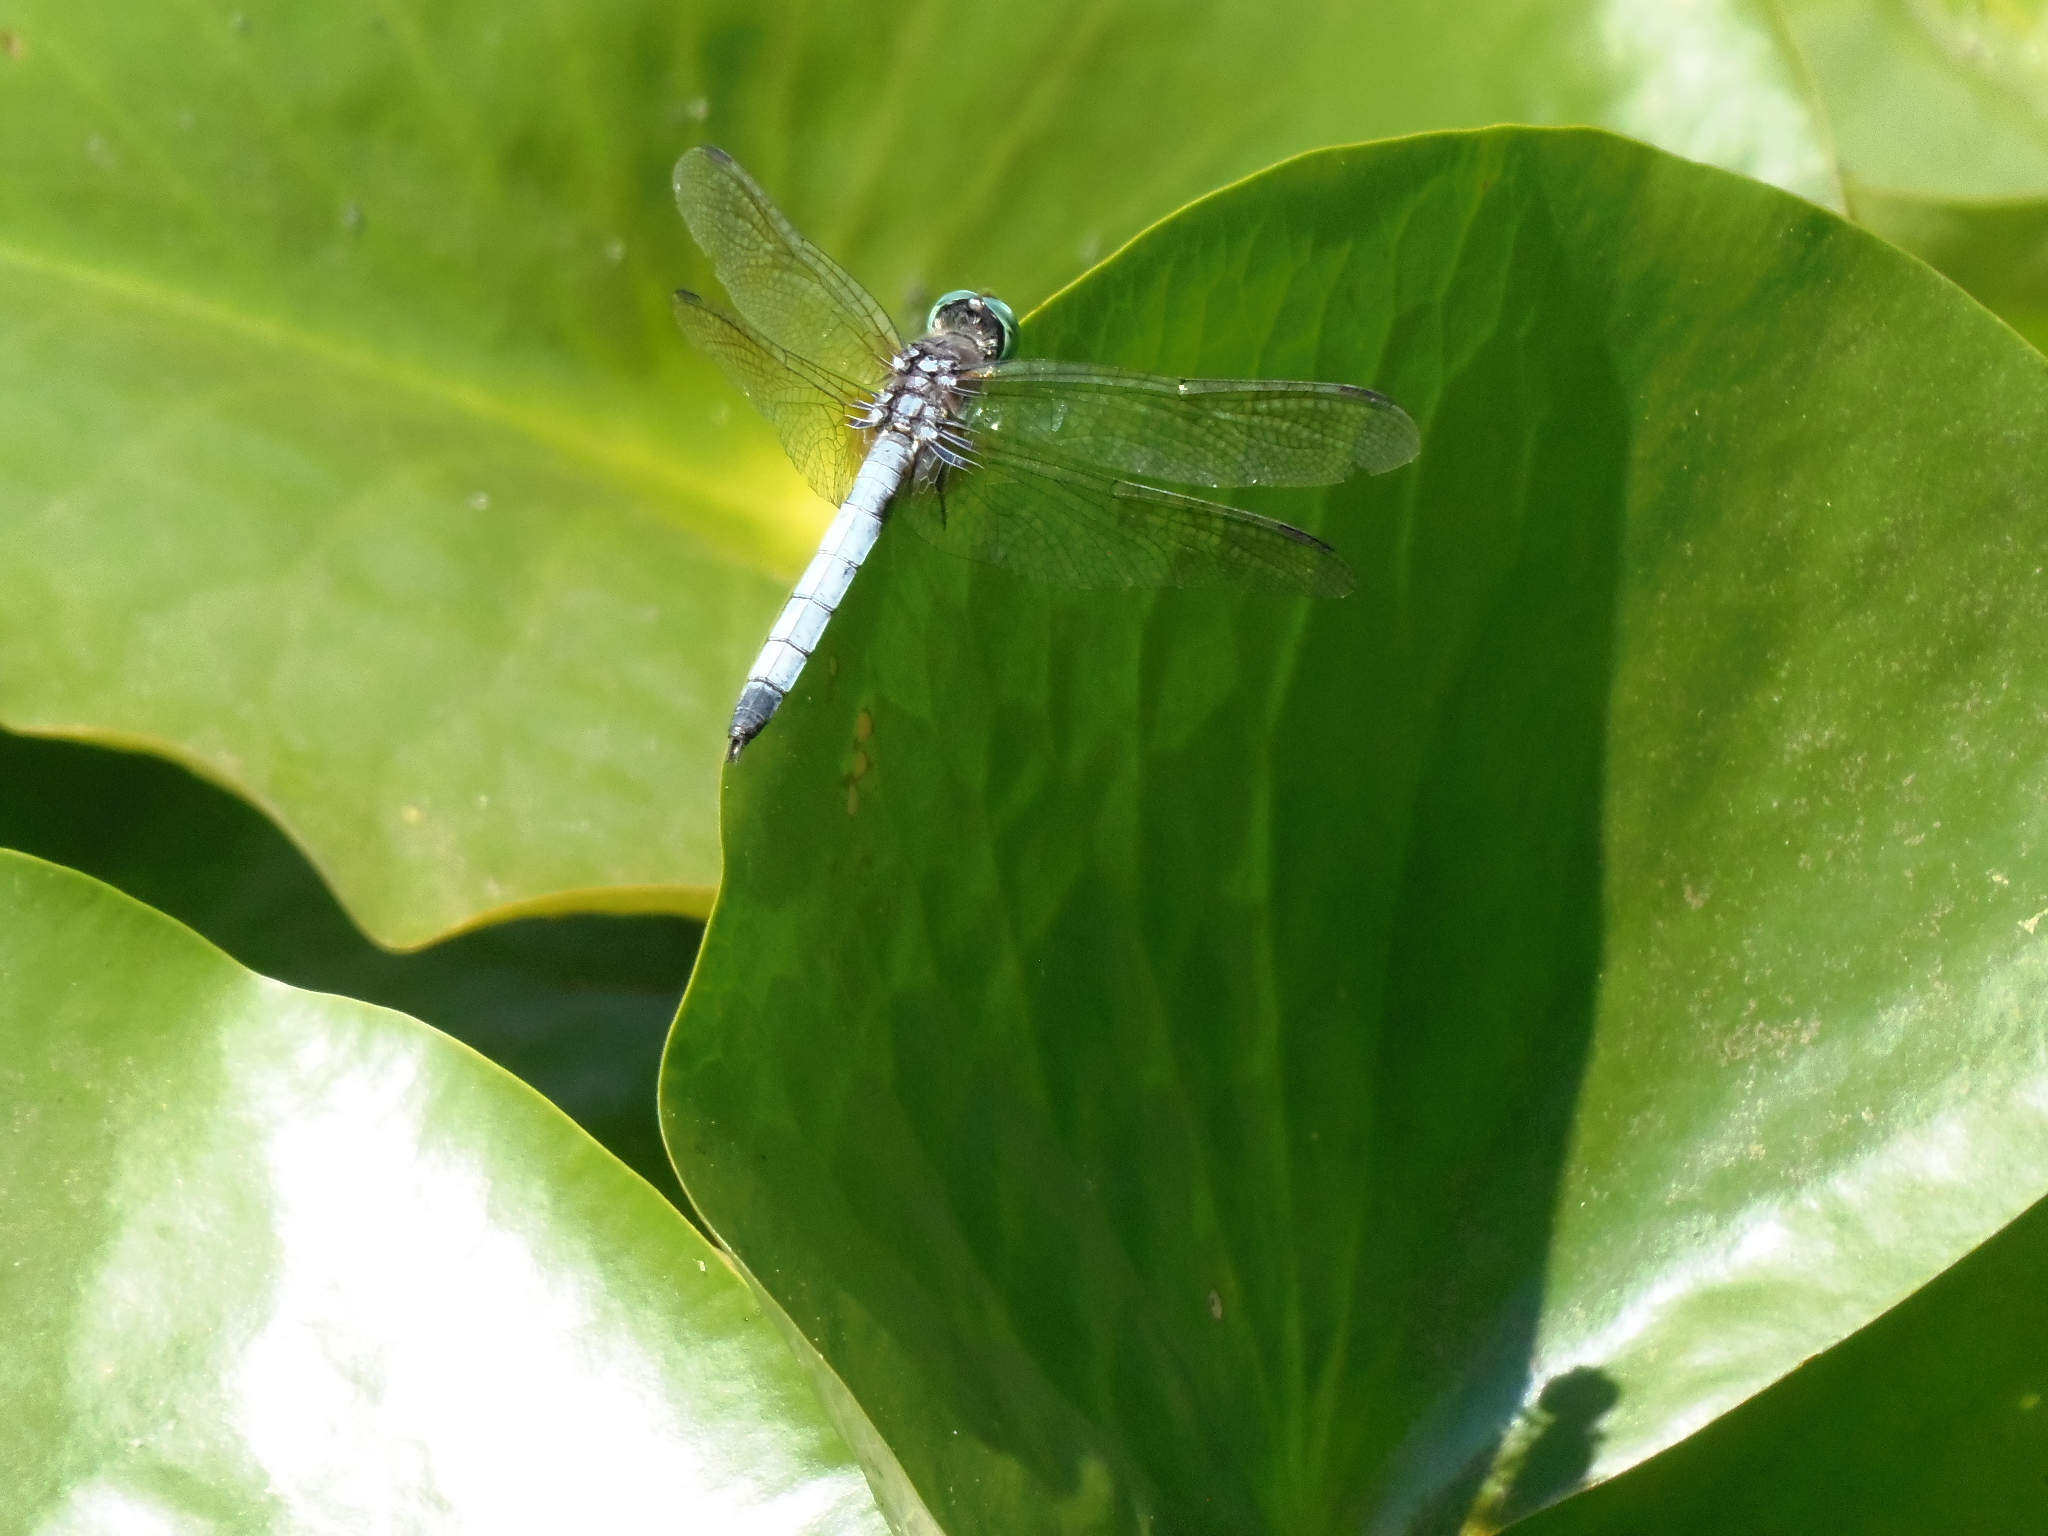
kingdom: Animalia
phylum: Arthropoda
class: Insecta
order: Odonata
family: Libellulidae
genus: Pachydiplax
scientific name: Pachydiplax longipennis
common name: Blue dasher
